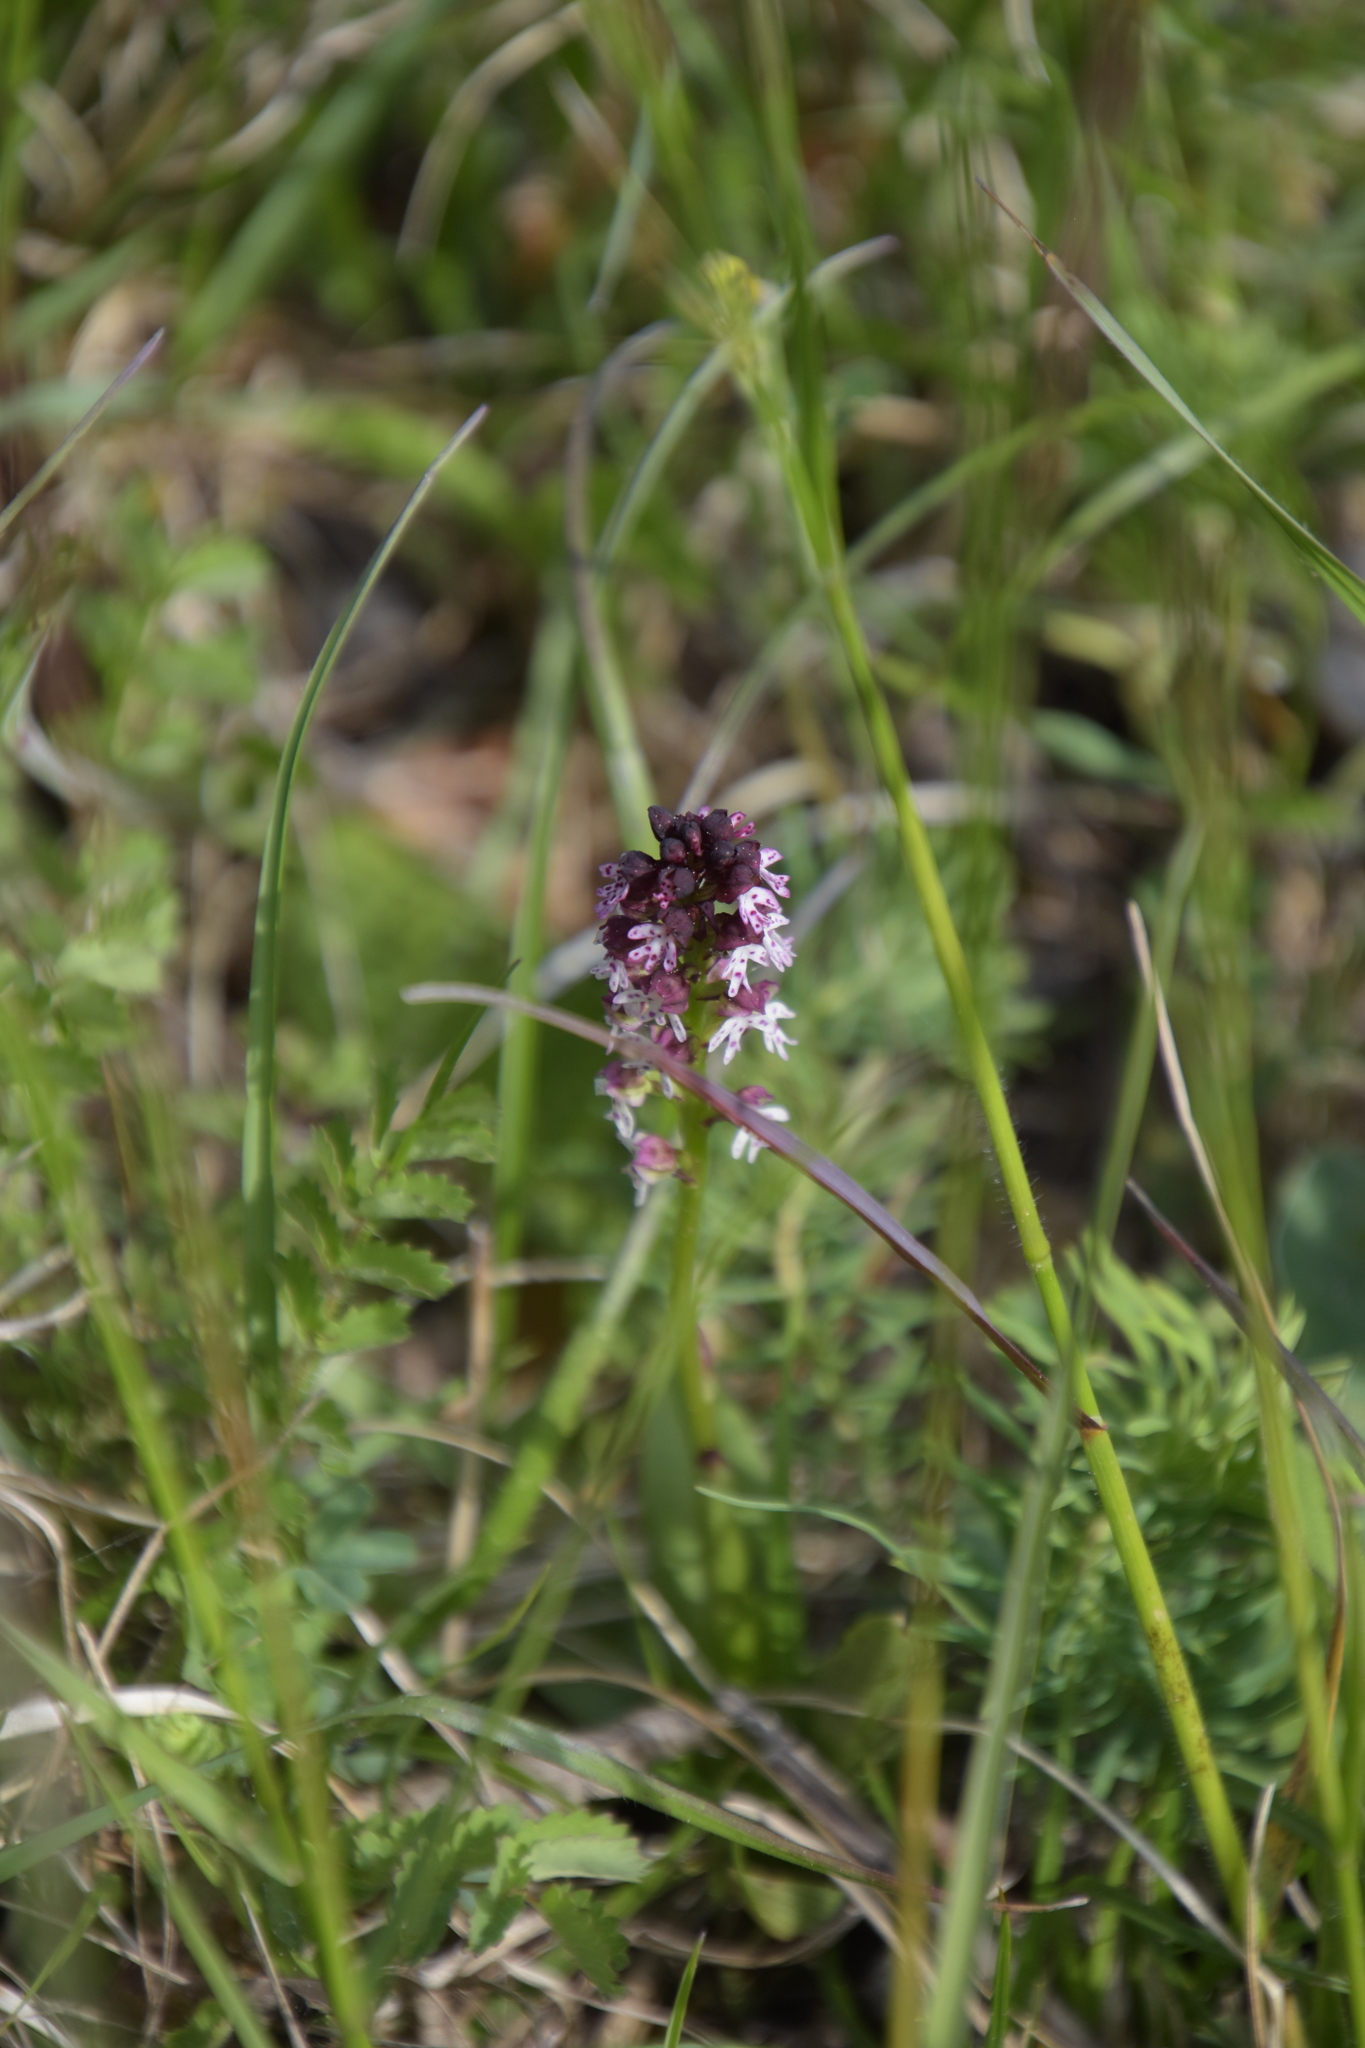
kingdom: Plantae
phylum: Tracheophyta
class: Liliopsida
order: Asparagales
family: Orchidaceae
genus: Neotinea
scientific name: Neotinea ustulata
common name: Burnt orchid
